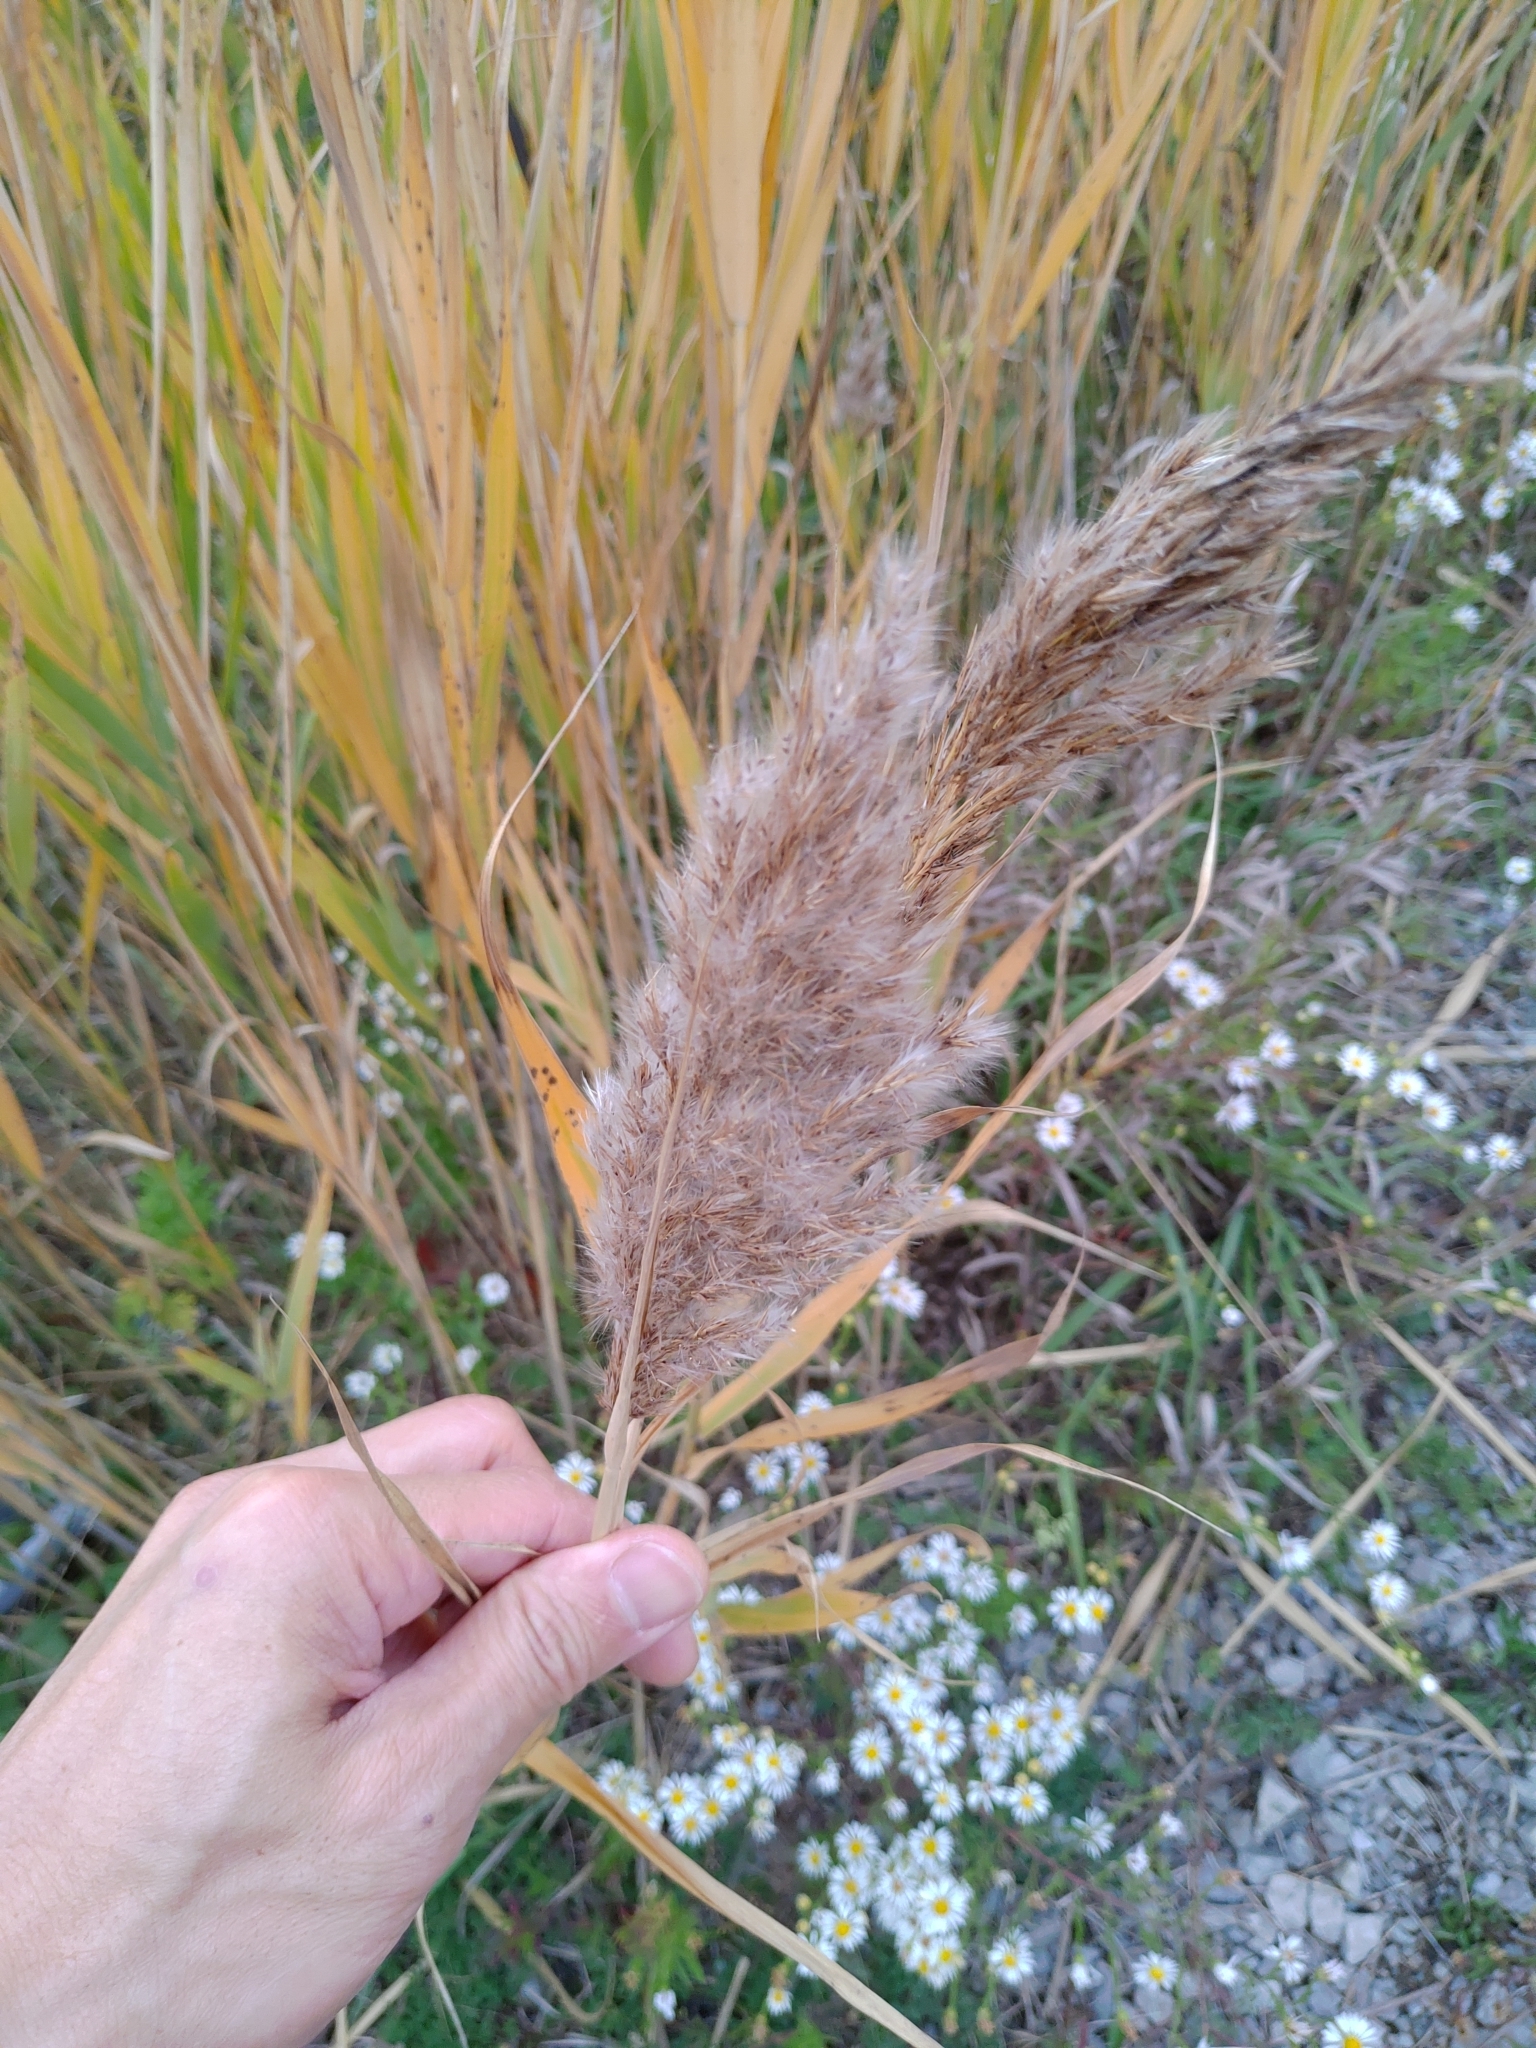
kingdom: Plantae
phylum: Tracheophyta
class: Liliopsida
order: Poales
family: Poaceae
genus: Phragmites
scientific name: Phragmites australis
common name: Common reed
